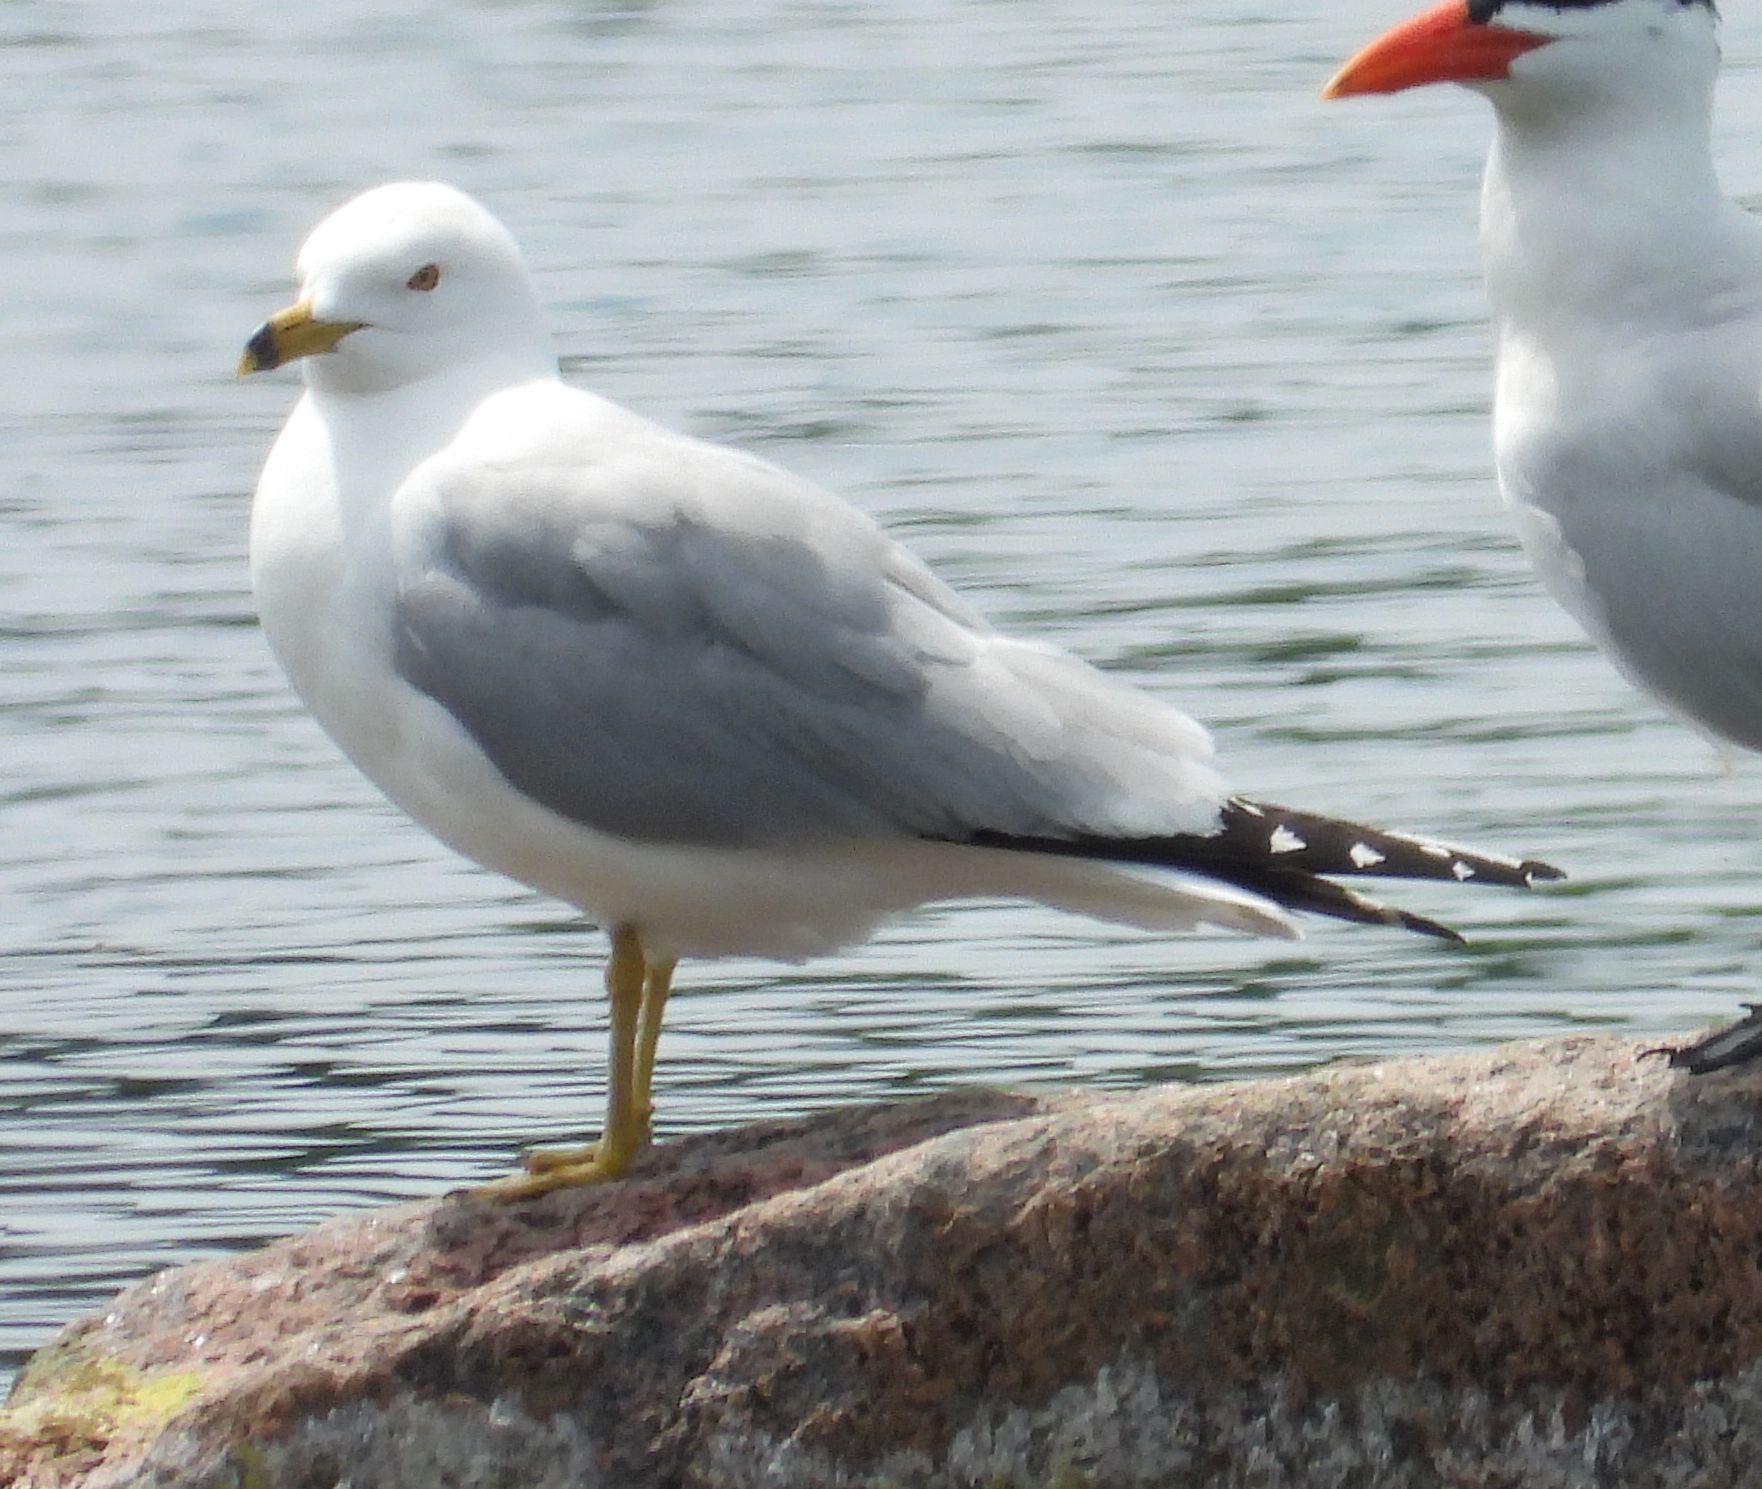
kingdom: Animalia
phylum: Chordata
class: Aves
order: Charadriiformes
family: Laridae
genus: Larus
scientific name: Larus delawarensis
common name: Ring-billed gull
